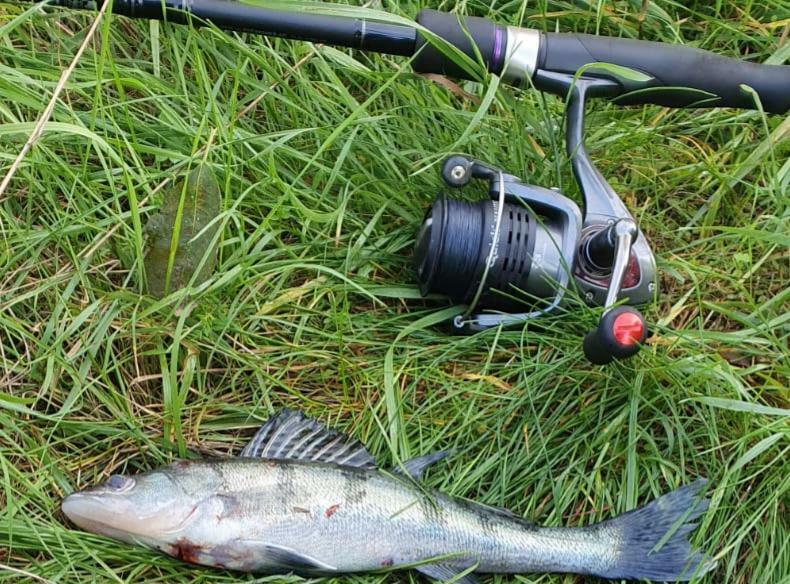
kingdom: Animalia
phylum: Chordata
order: Perciformes
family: Percidae
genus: Sander
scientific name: Sander volgensis
